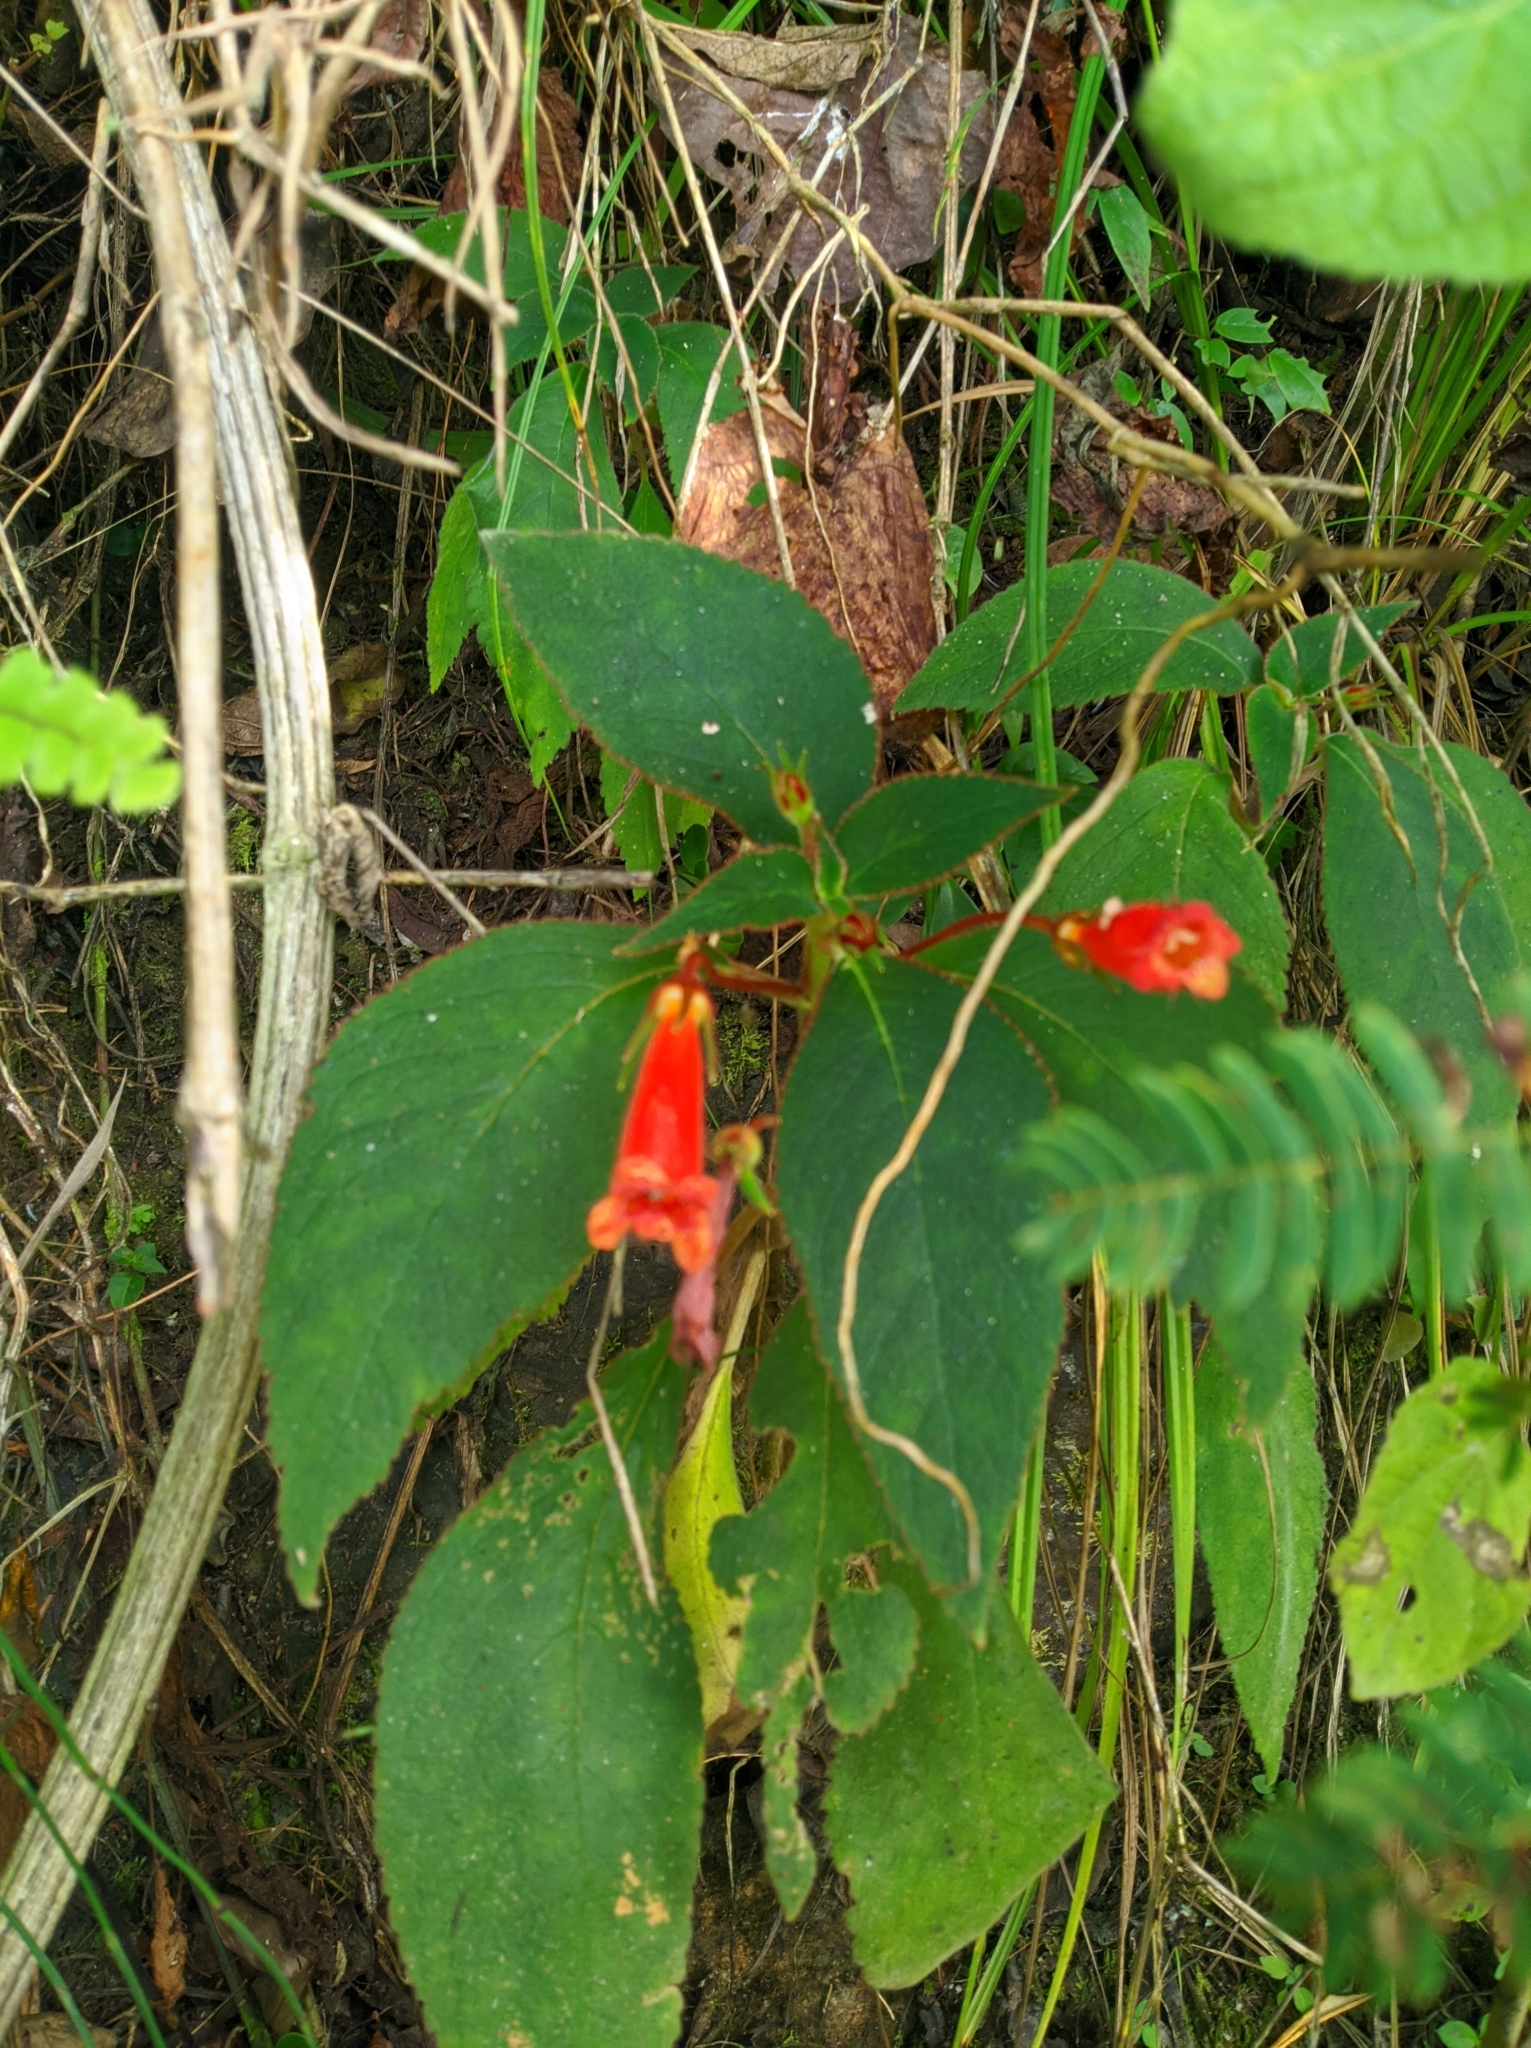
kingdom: Plantae
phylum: Tracheophyta
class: Magnoliopsida
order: Lamiales
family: Gesneriaceae
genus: Kohleria
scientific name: Kohleria hirsuta
